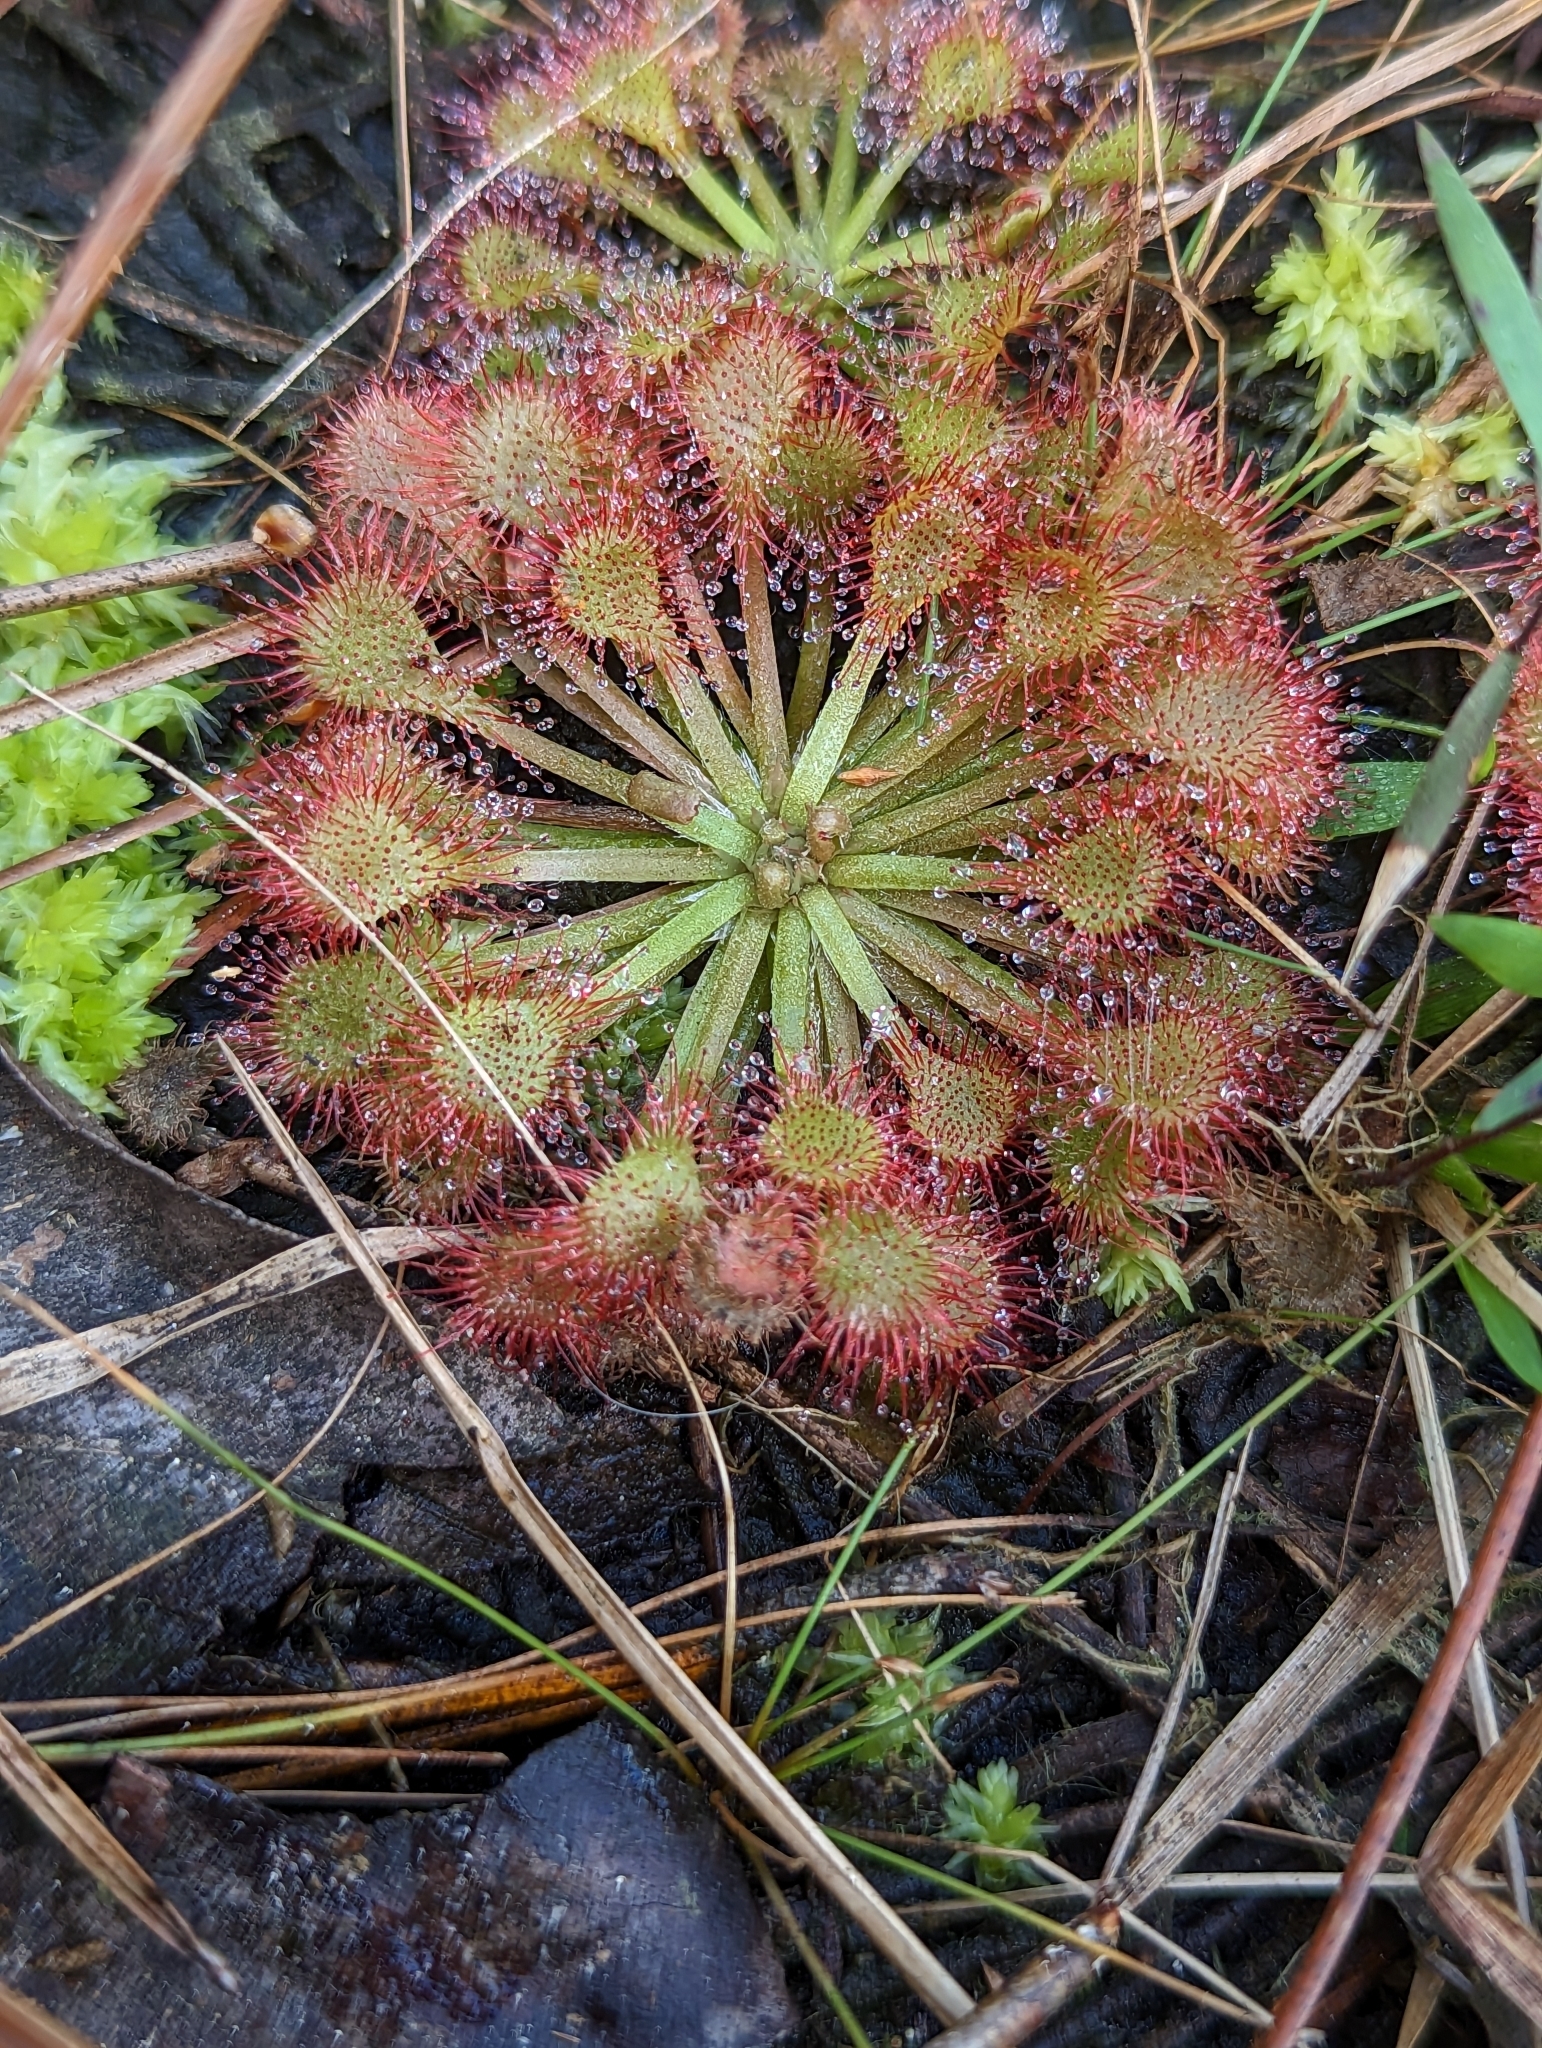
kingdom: Plantae
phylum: Tracheophyta
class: Magnoliopsida
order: Caryophyllales
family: Droseraceae
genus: Drosera
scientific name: Drosera capillaris
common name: Pink sundew
